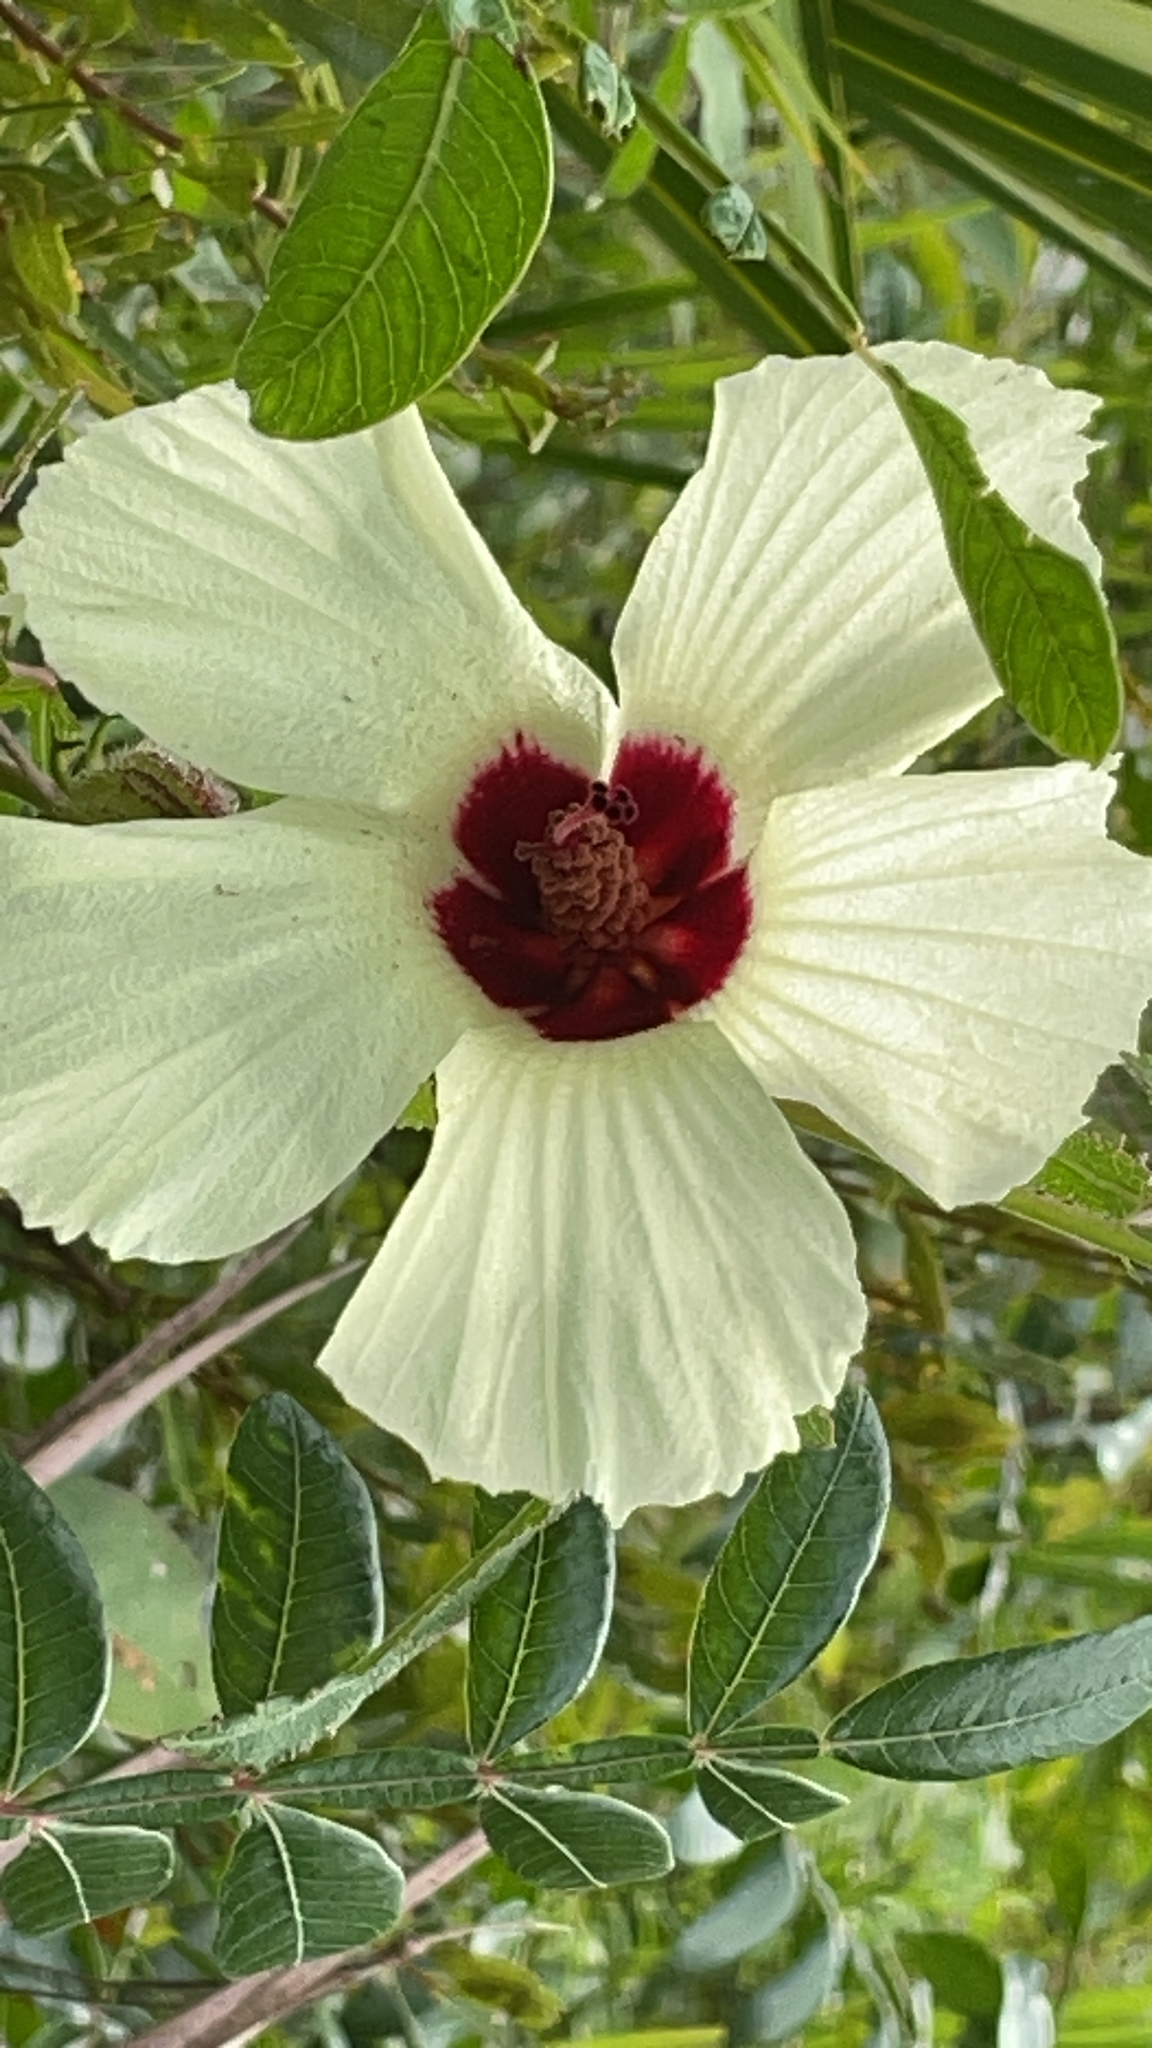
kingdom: Plantae
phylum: Tracheophyta
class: Magnoliopsida
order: Malvales
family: Malvaceae
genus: Hibiscus
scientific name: Hibiscus aculeatus
